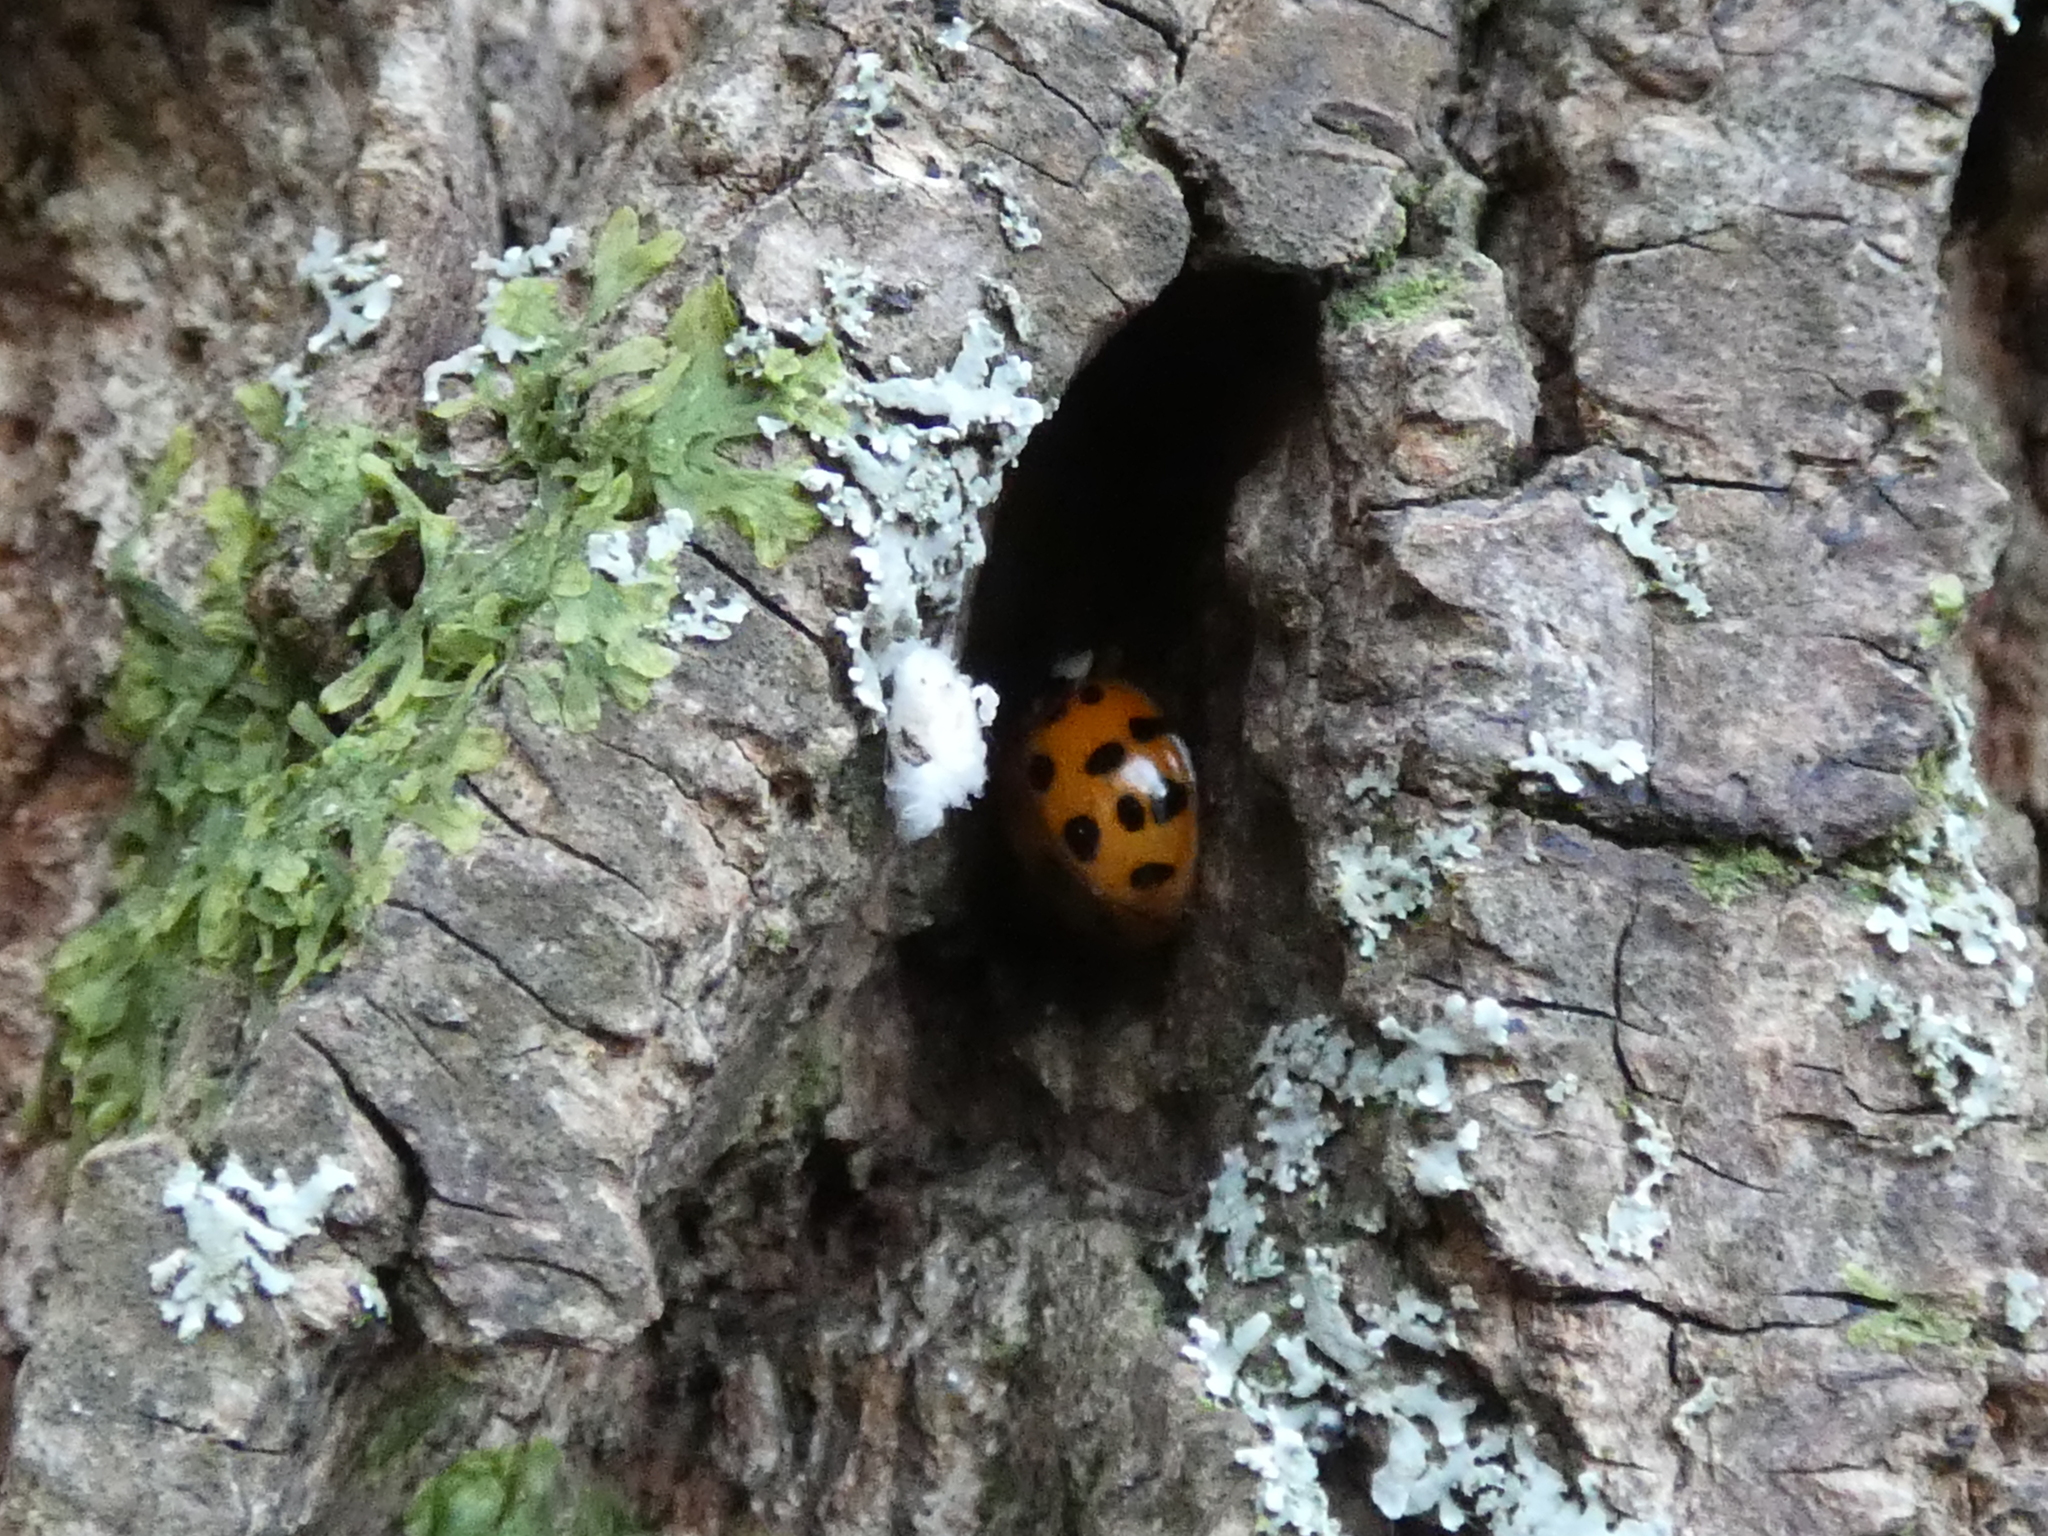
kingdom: Animalia
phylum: Arthropoda
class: Insecta
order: Coleoptera
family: Coccinellidae
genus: Harmonia
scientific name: Harmonia axyridis
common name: Harlequin ladybird
